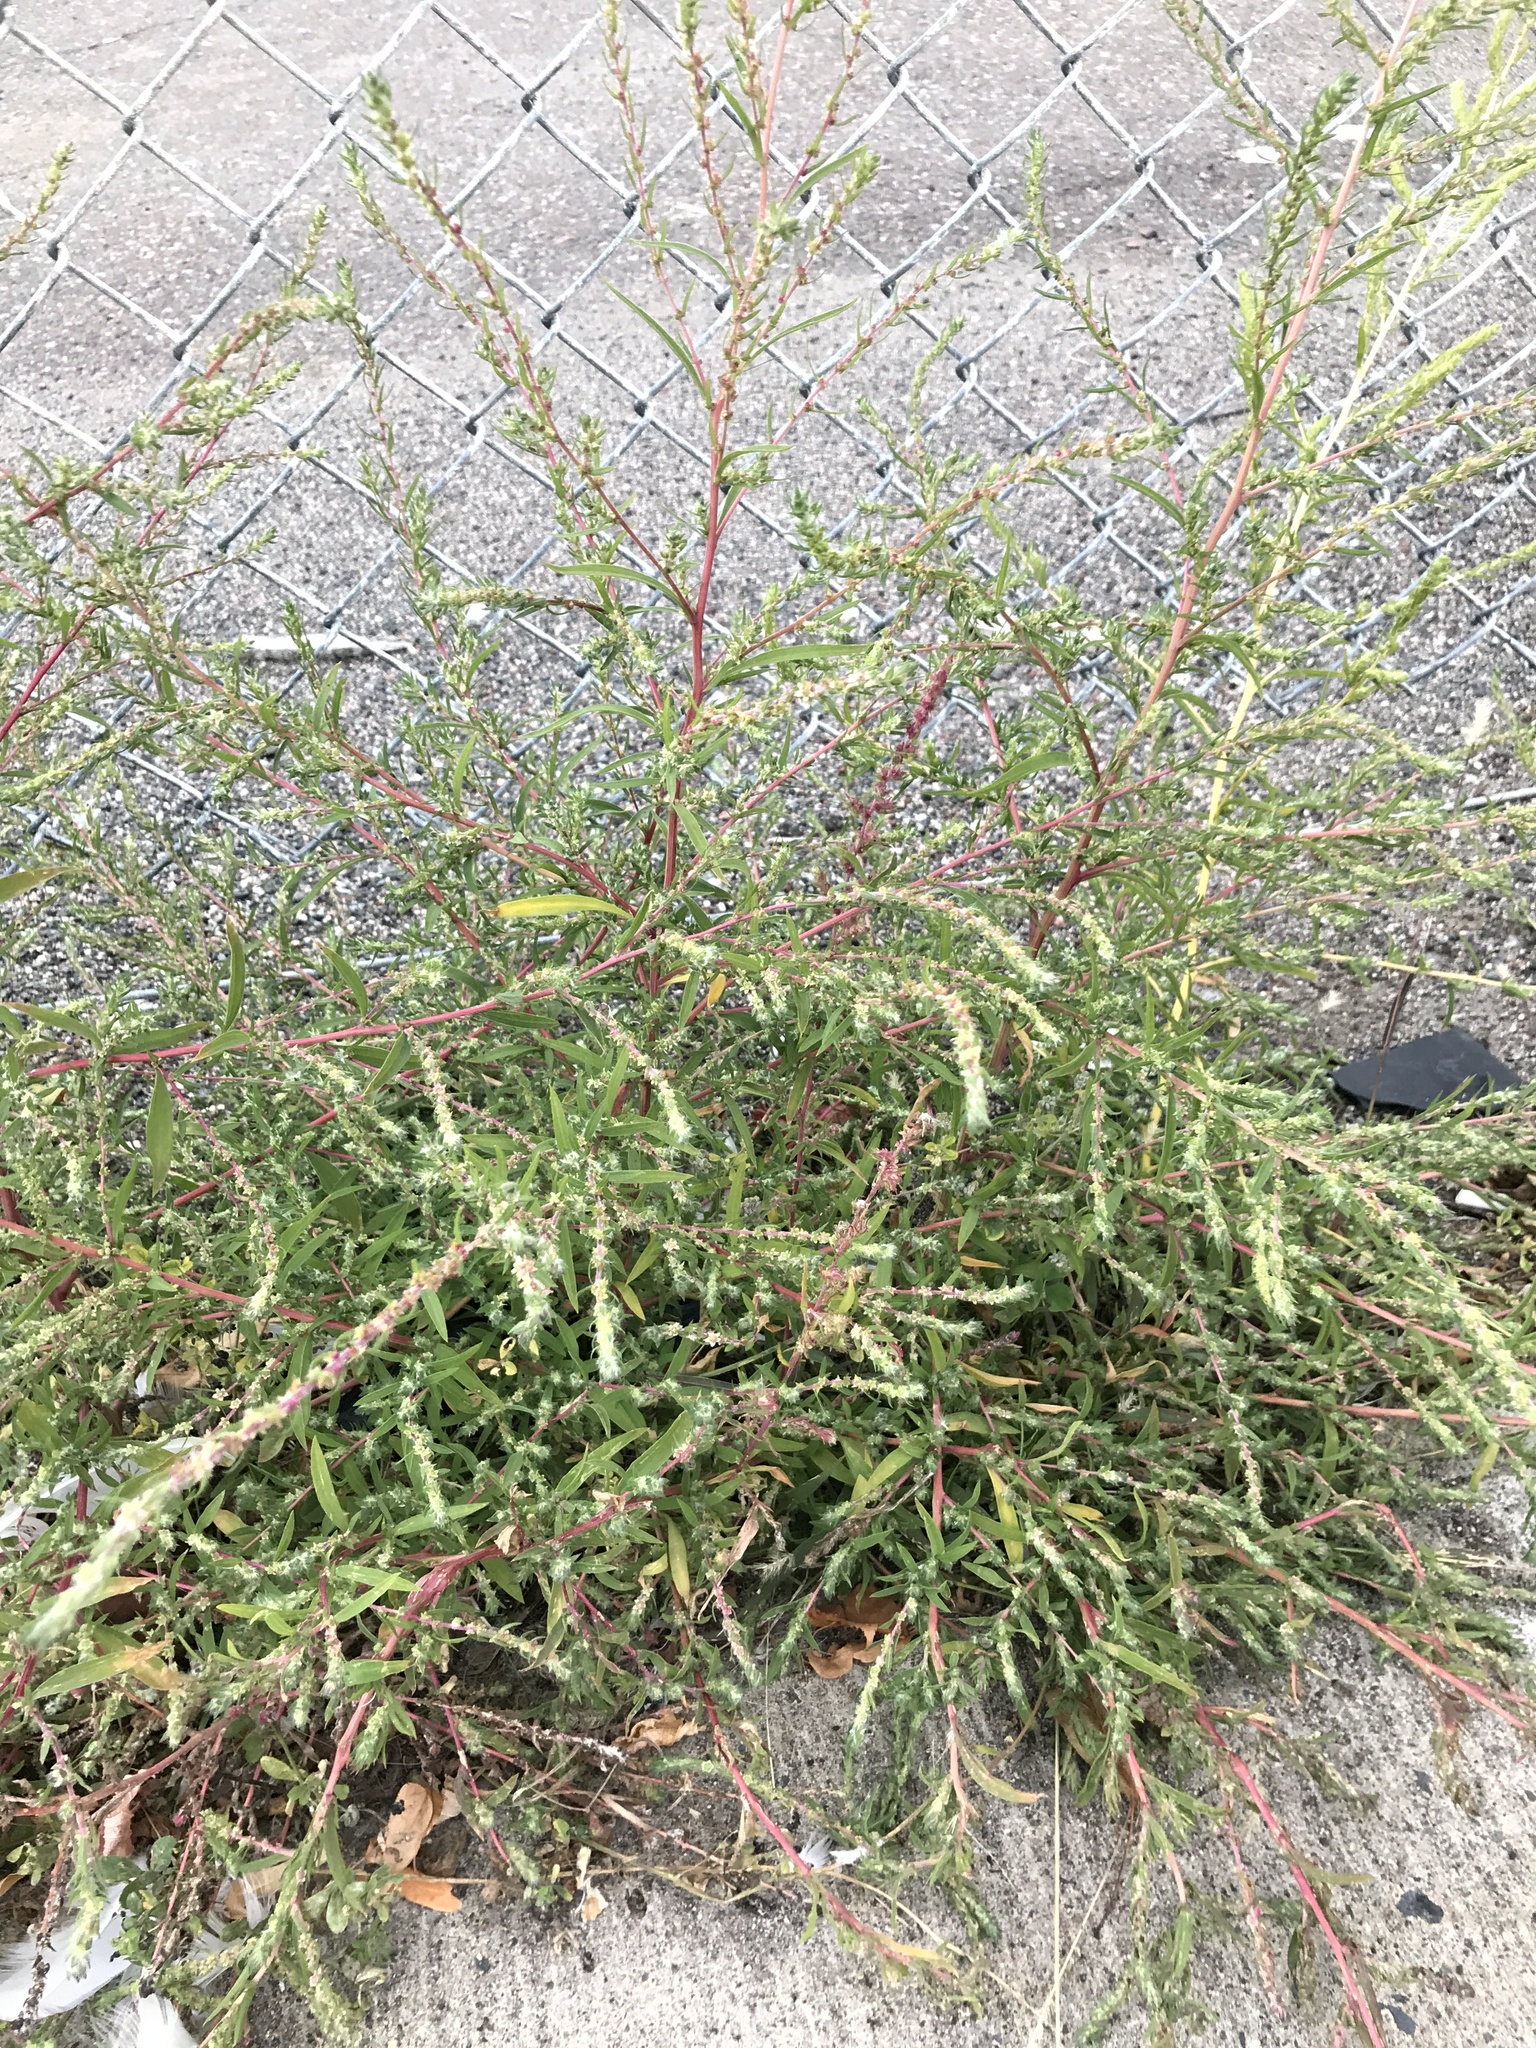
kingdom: Plantae
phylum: Tracheophyta
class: Magnoliopsida
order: Caryophyllales
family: Amaranthaceae
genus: Bassia
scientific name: Bassia scoparia
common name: Belvedere
